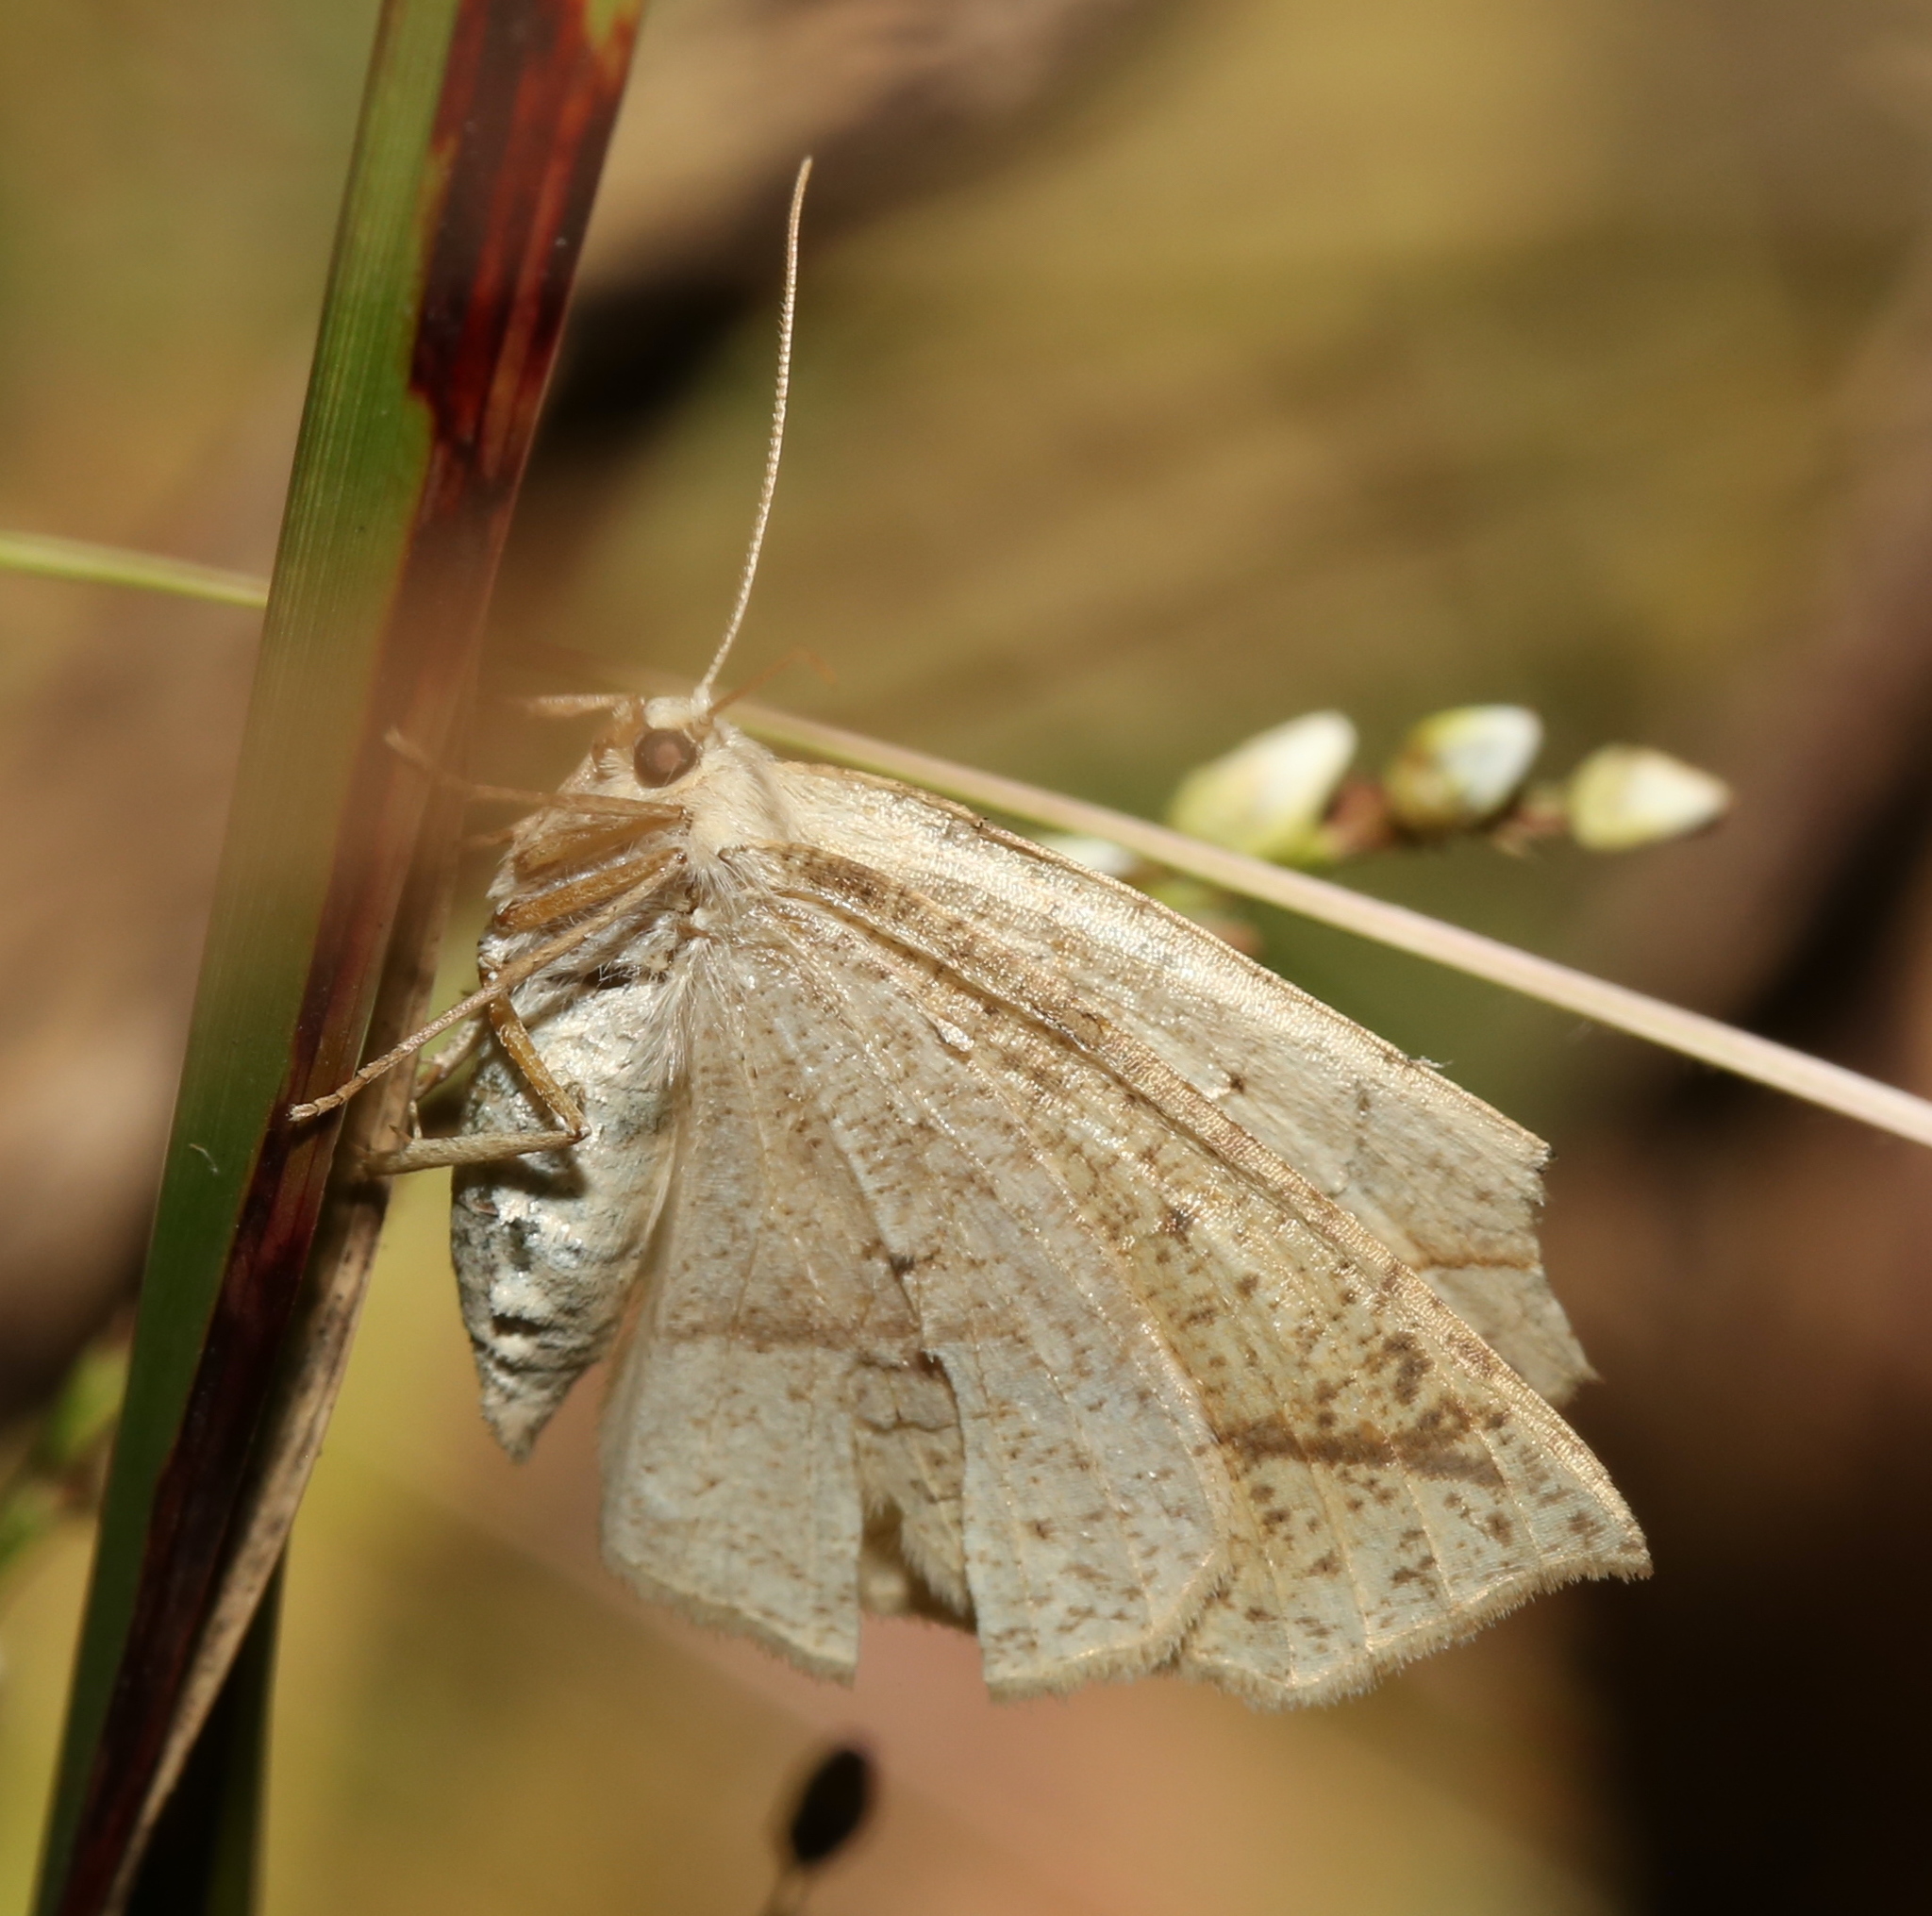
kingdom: Animalia
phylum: Arthropoda
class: Insecta
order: Lepidoptera
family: Geometridae
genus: Eusarca
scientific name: Eusarca confusaria
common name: Confused eusarca
